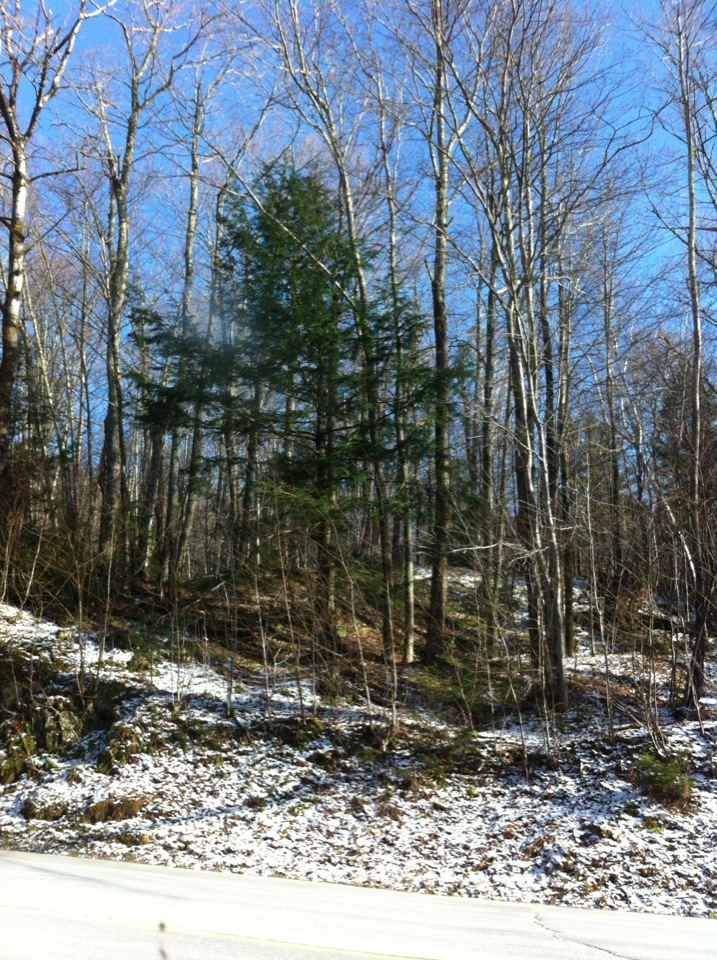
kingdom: Plantae
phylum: Tracheophyta
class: Pinopsida
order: Pinales
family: Pinaceae
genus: Tsuga
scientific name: Tsuga canadensis
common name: Eastern hemlock
